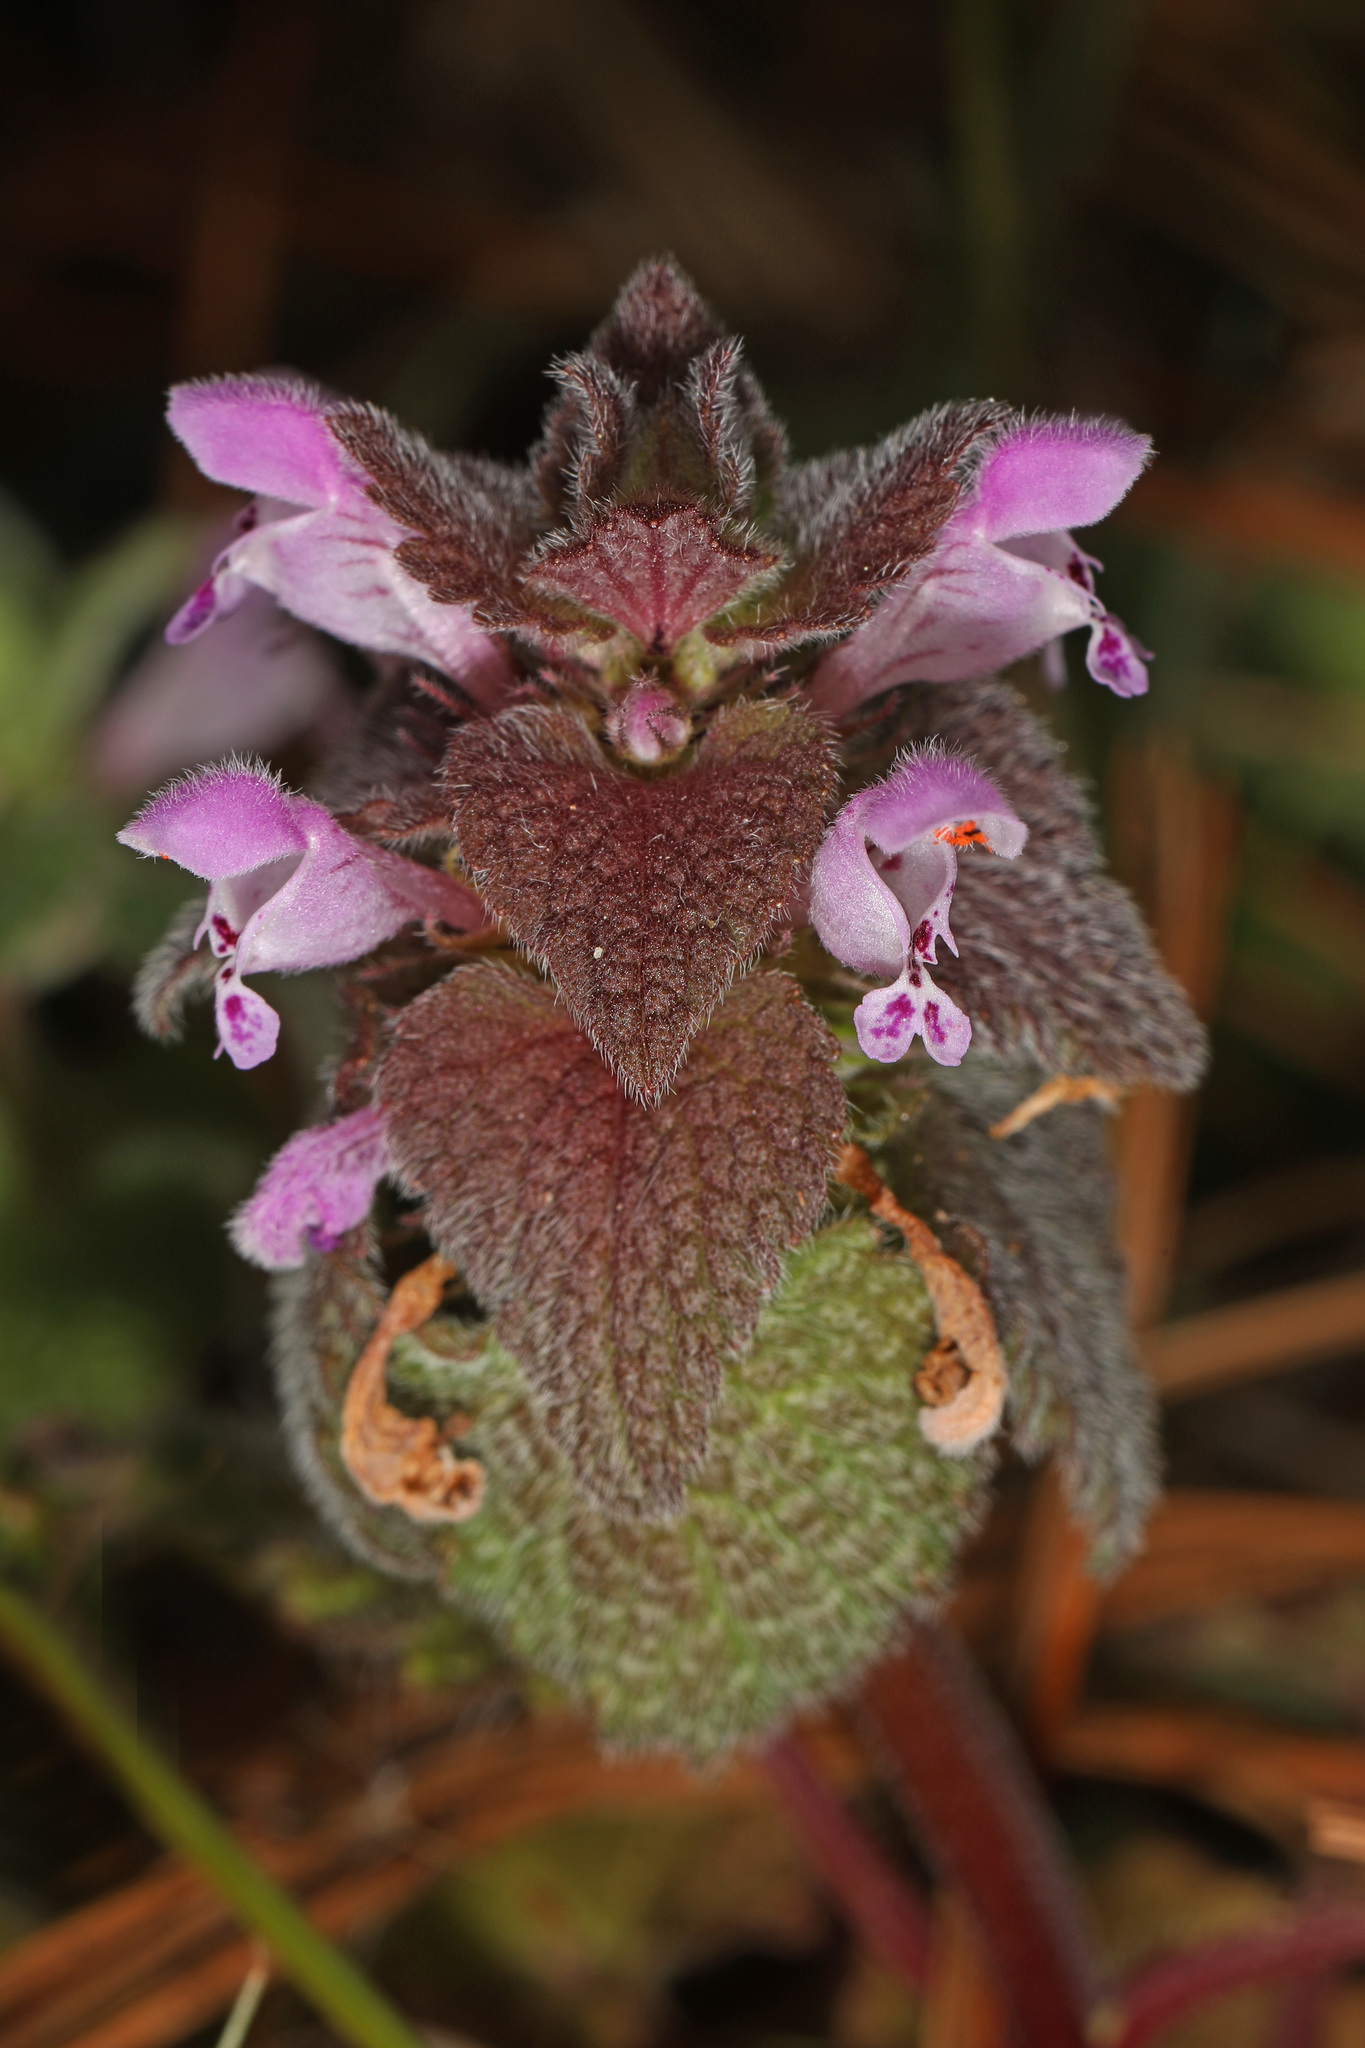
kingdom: Plantae
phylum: Tracheophyta
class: Magnoliopsida
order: Lamiales
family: Lamiaceae
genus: Lamium
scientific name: Lamium purpureum
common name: Red dead-nettle
